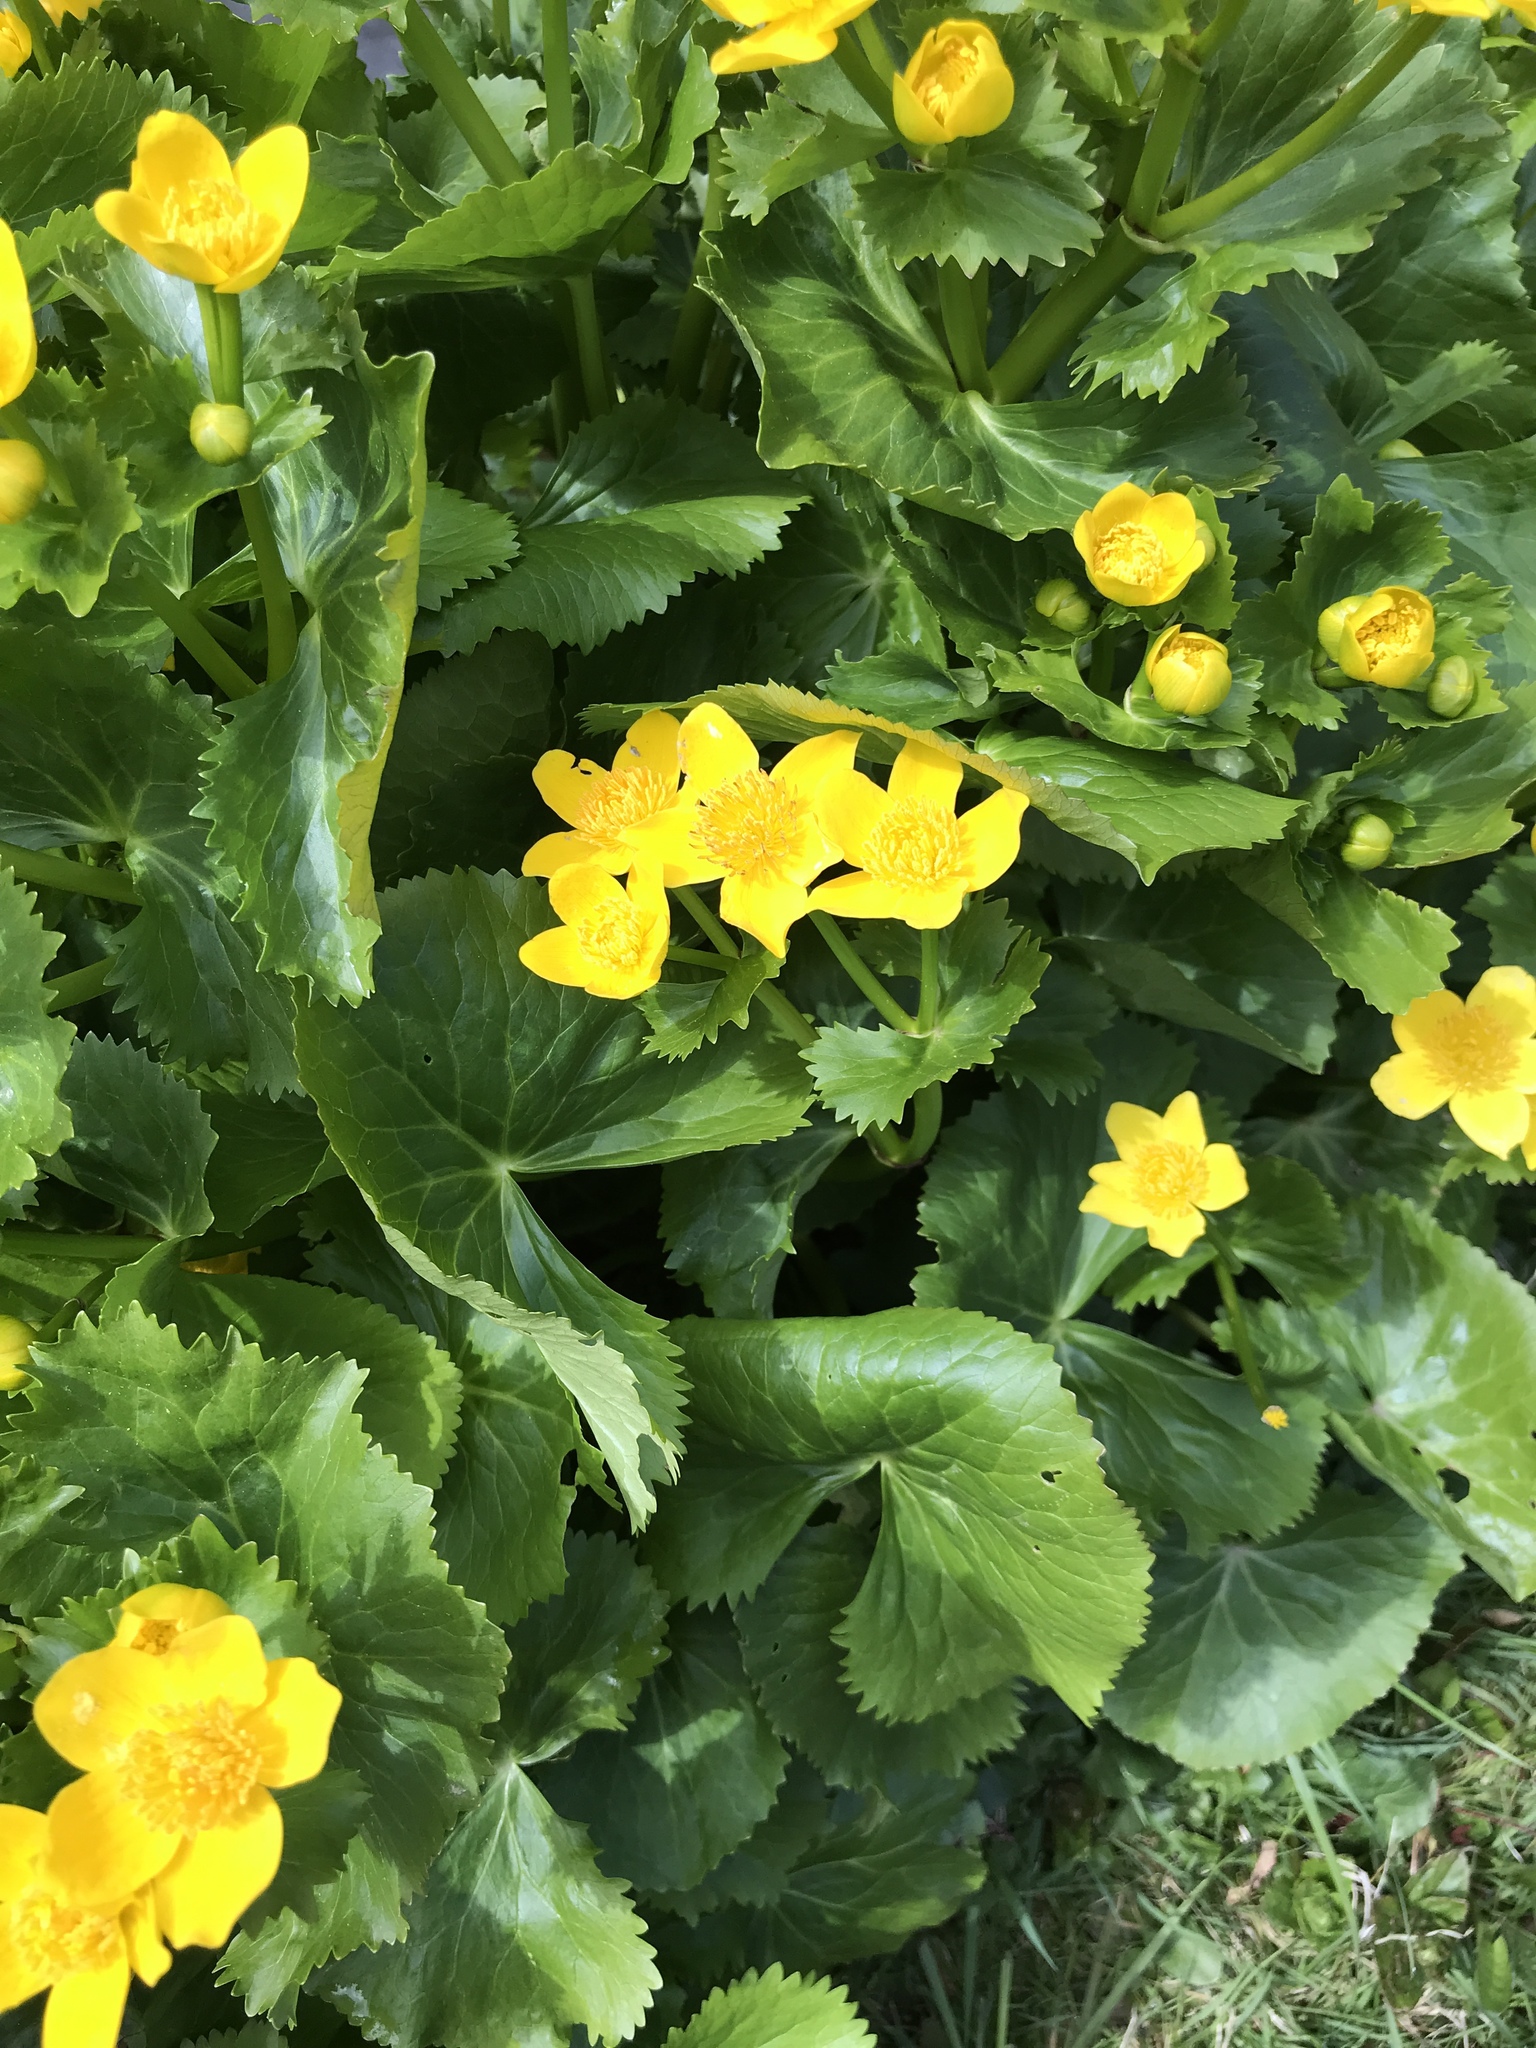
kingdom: Plantae
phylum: Tracheophyta
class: Magnoliopsida
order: Ranunculales
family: Ranunculaceae
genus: Caltha
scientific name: Caltha palustris
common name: Marsh marigold
